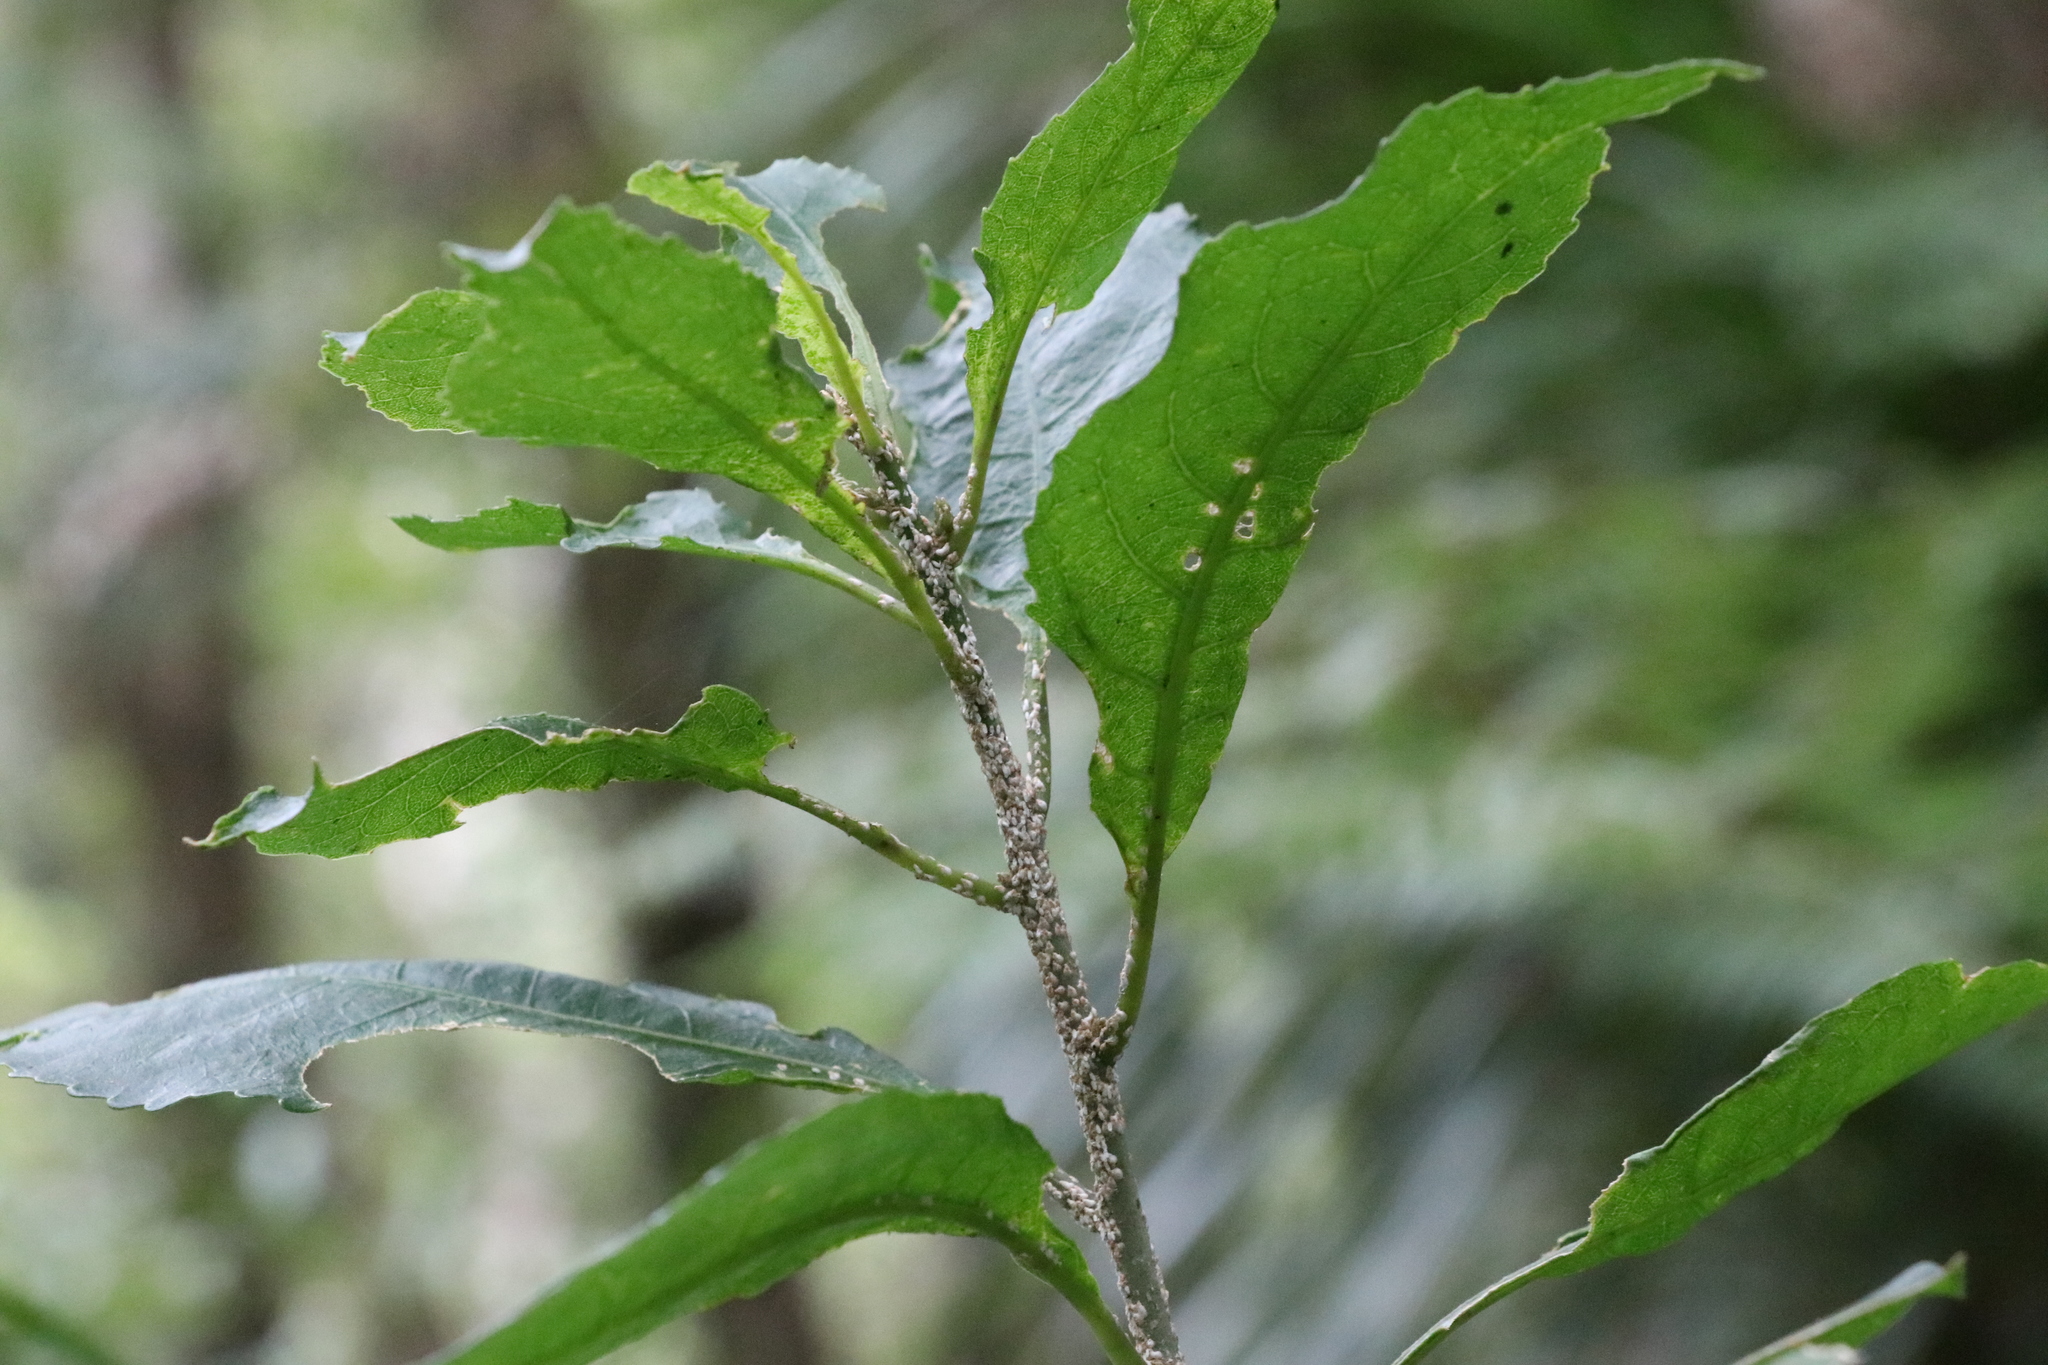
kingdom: Plantae
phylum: Tracheophyta
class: Magnoliopsida
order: Malpighiales
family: Violaceae
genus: Melicytus
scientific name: Melicytus ramiflorus
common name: Mahoe
